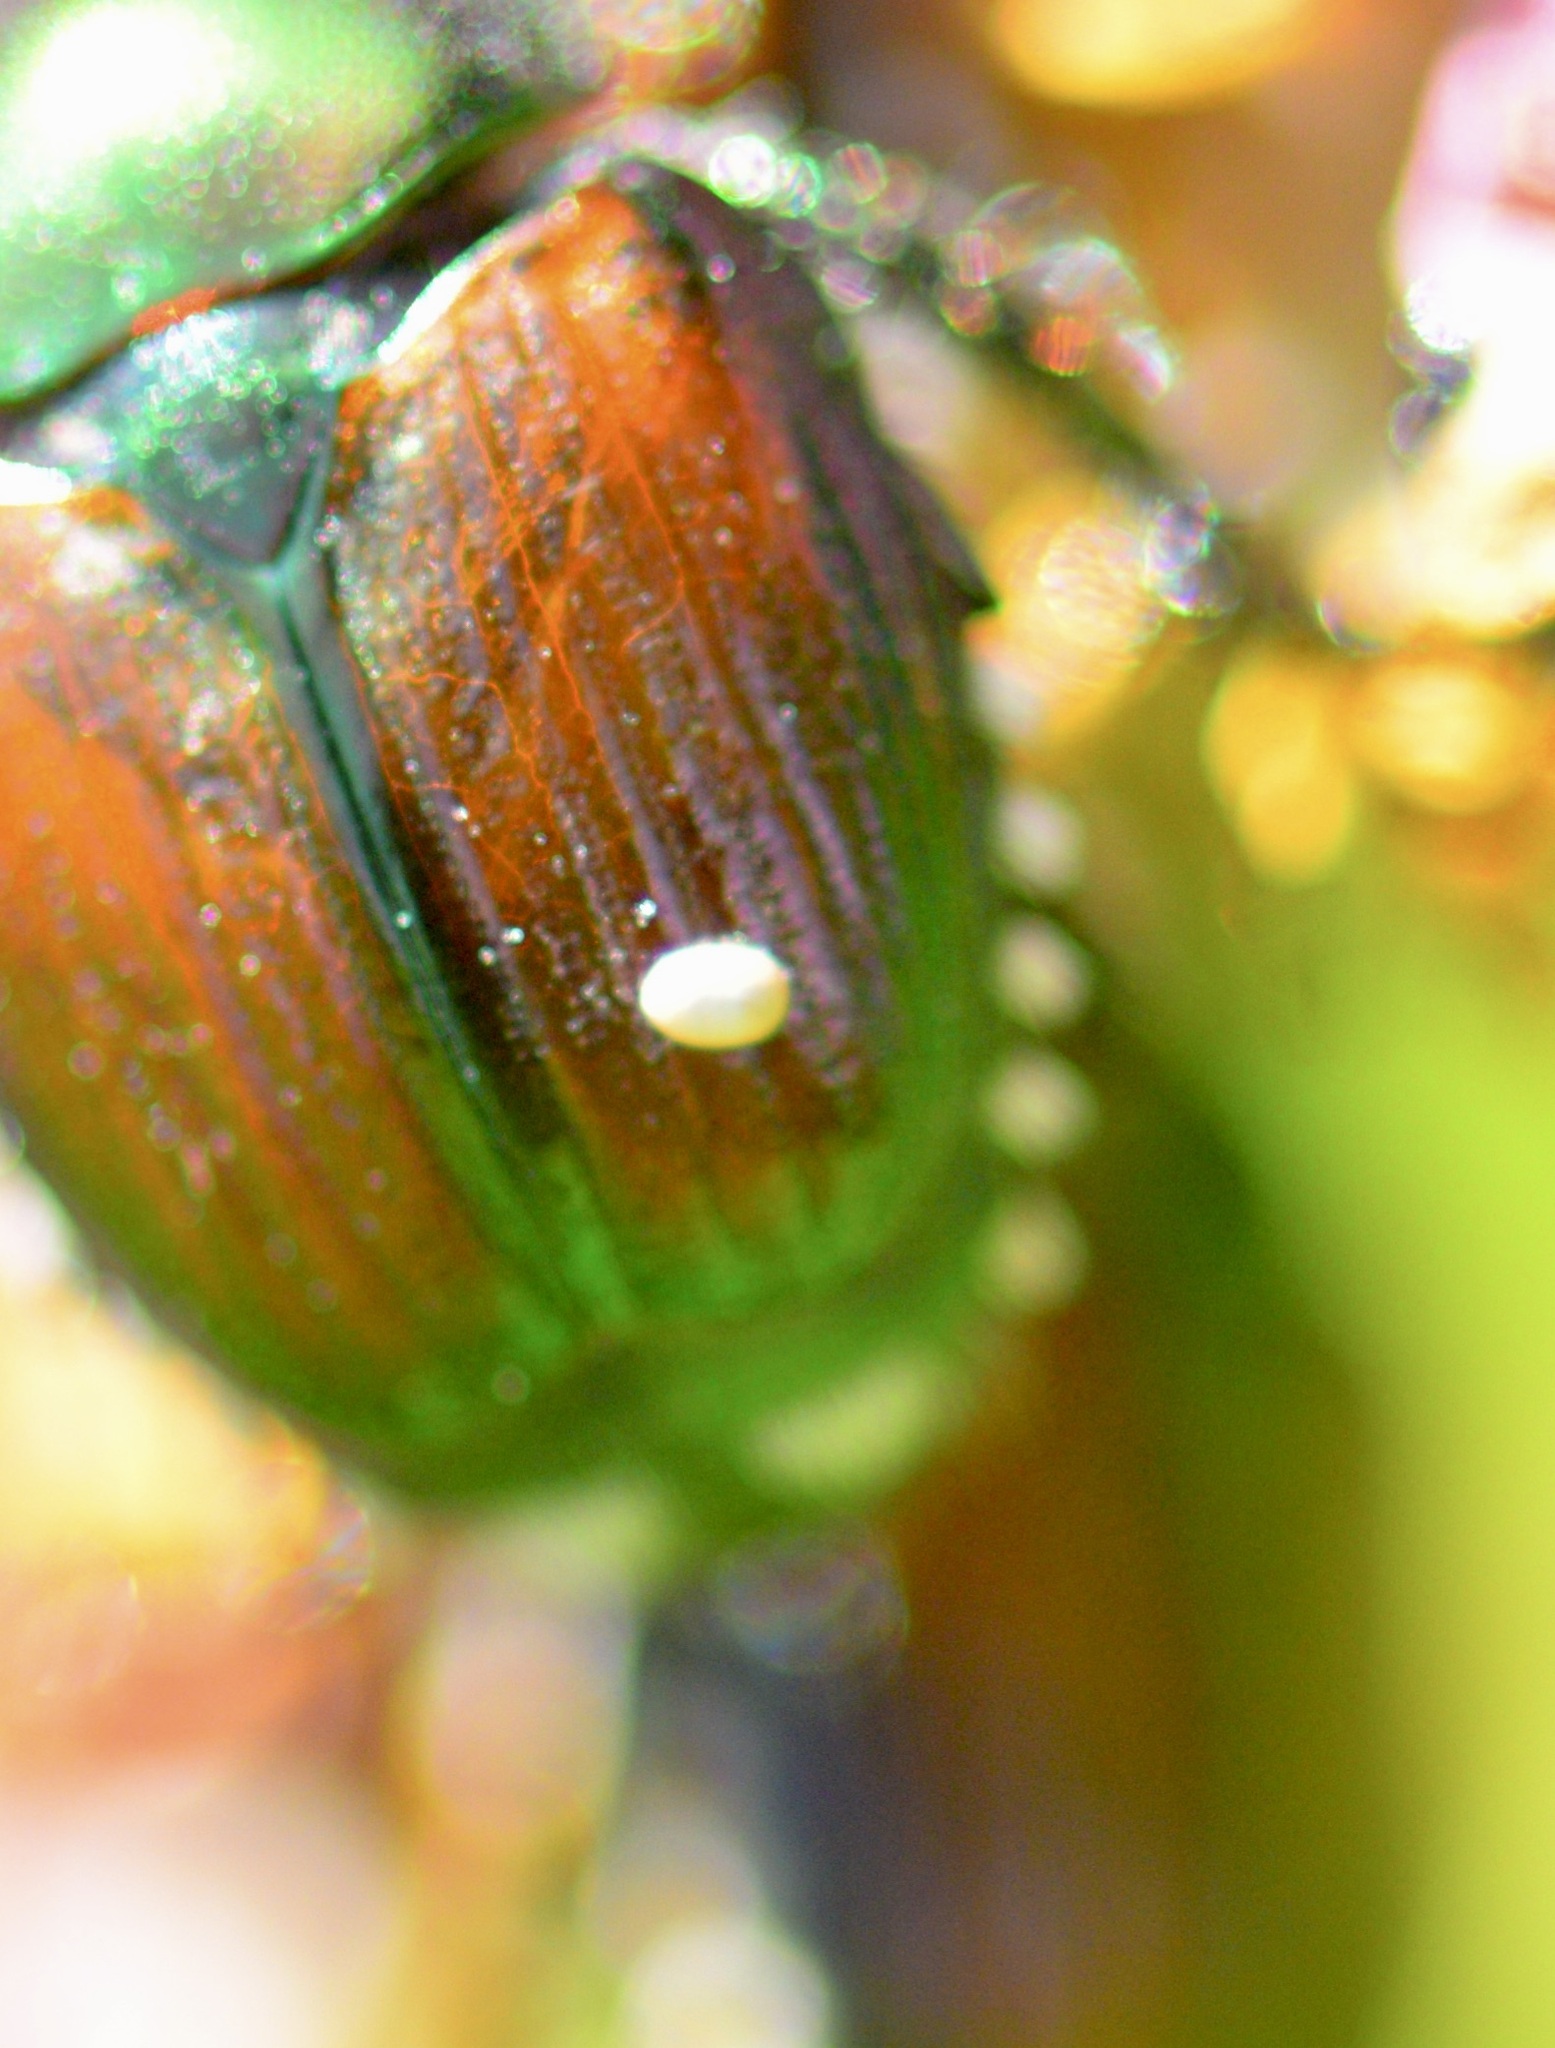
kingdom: Animalia
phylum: Arthropoda
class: Insecta
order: Diptera
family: Tachinidae
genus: Istocheta
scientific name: Istocheta aldrichi
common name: Parasitic wasp
